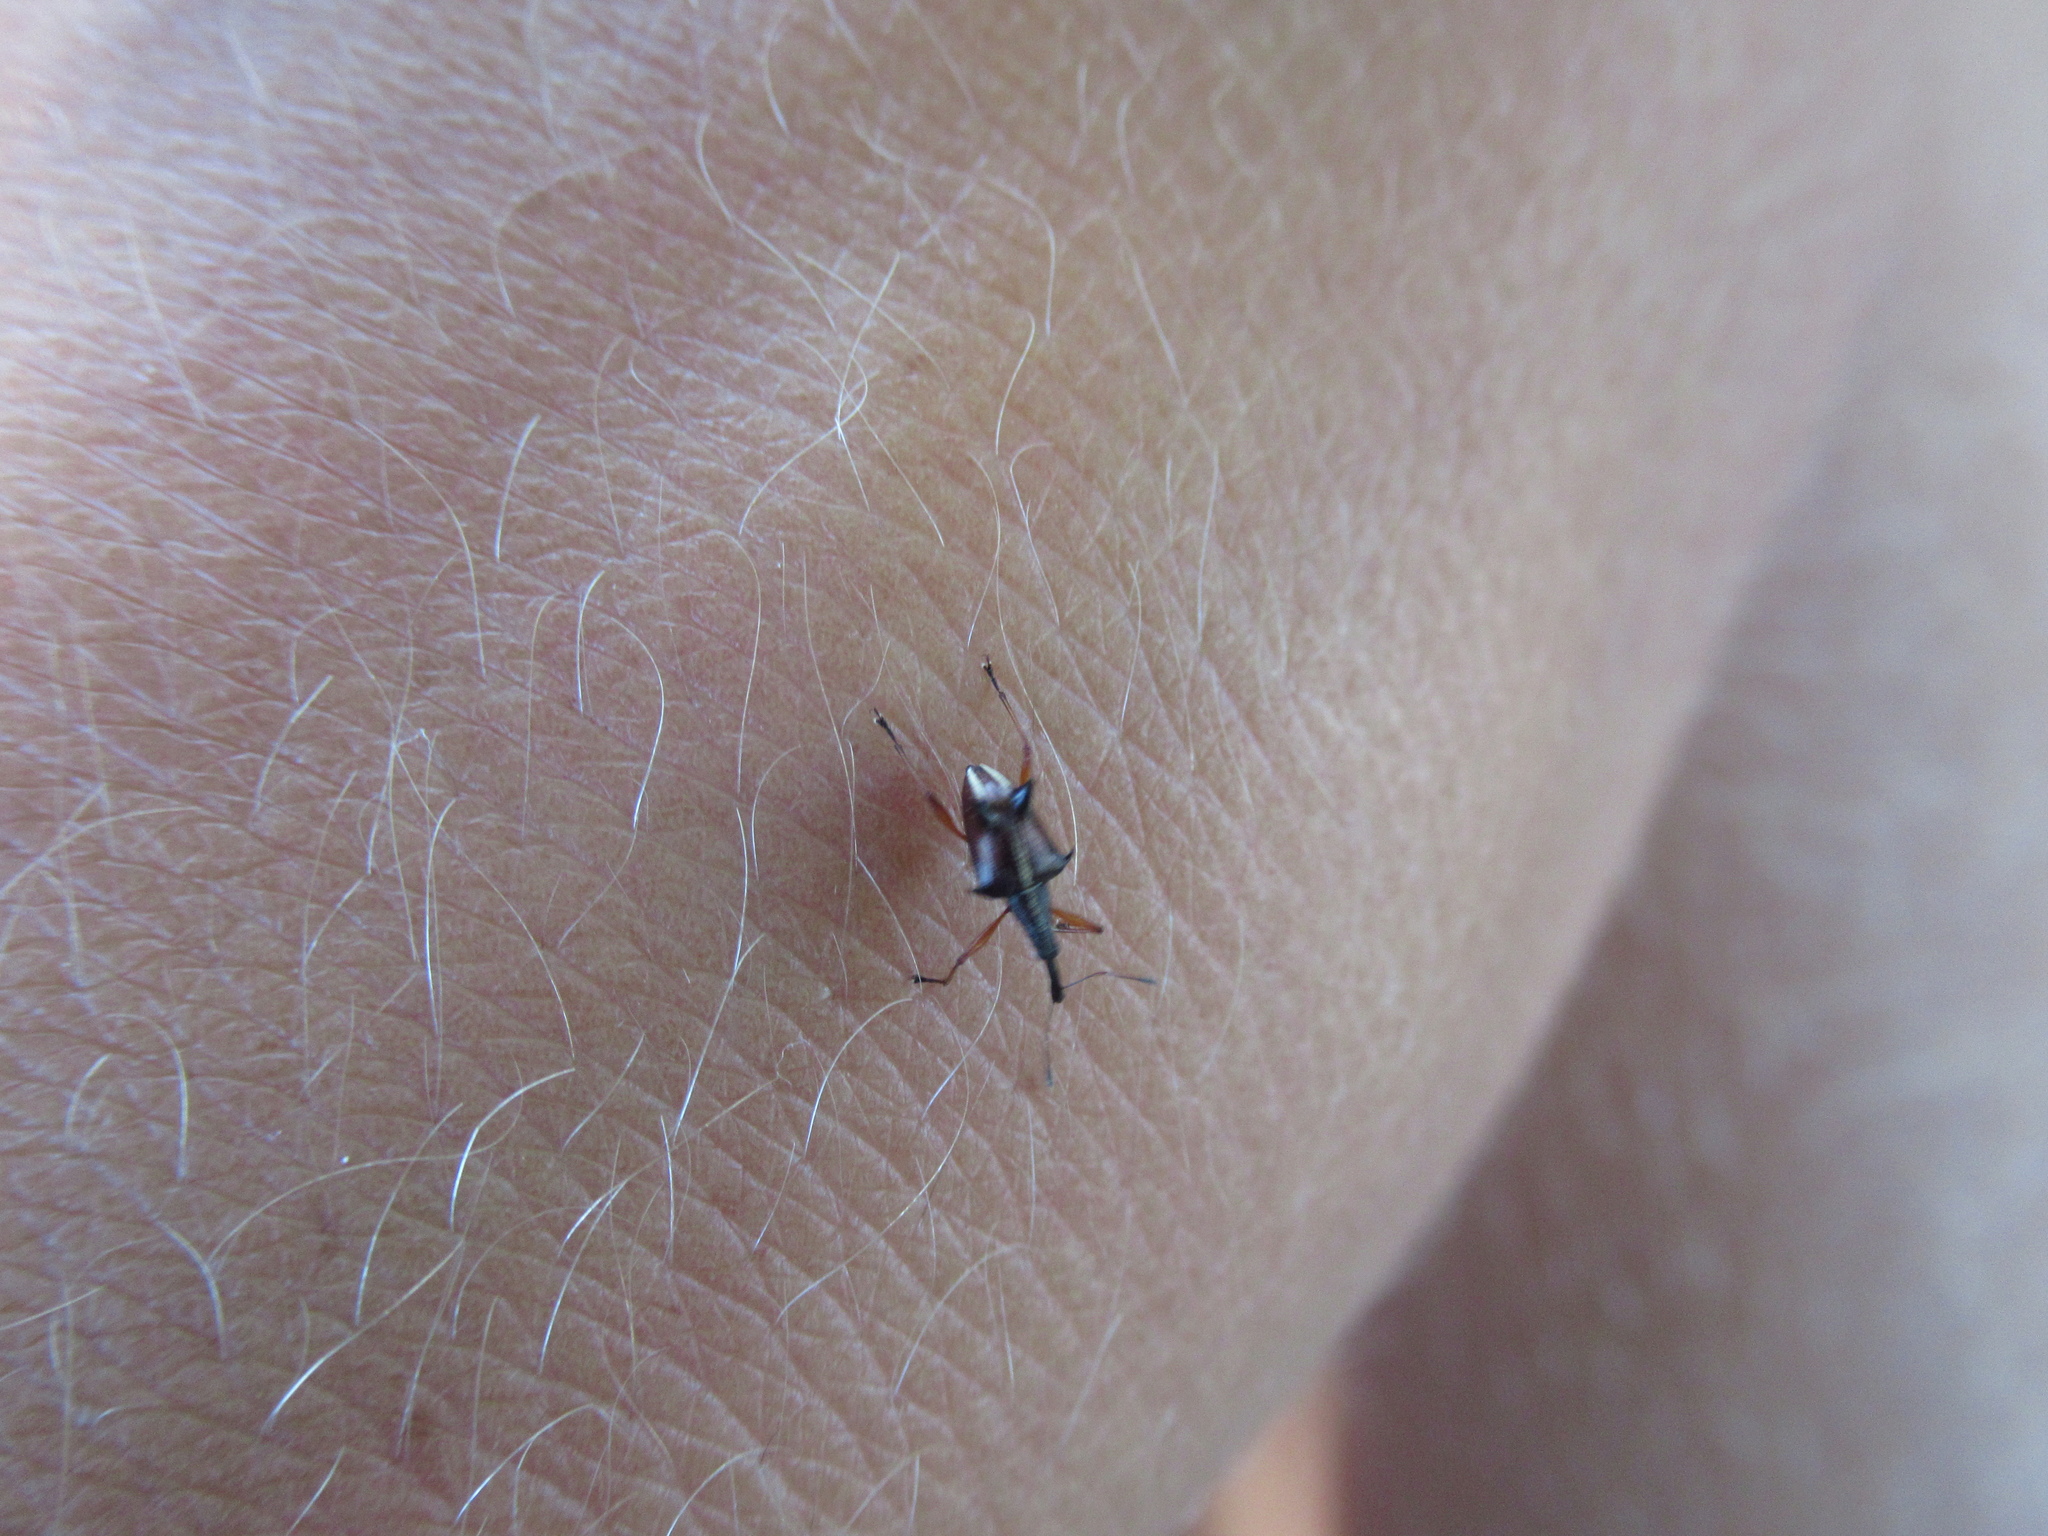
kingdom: Animalia
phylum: Arthropoda
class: Insecta
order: Coleoptera
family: Curculionidae
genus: Ancistropterus
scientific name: Ancistropterus quadrispinosus
